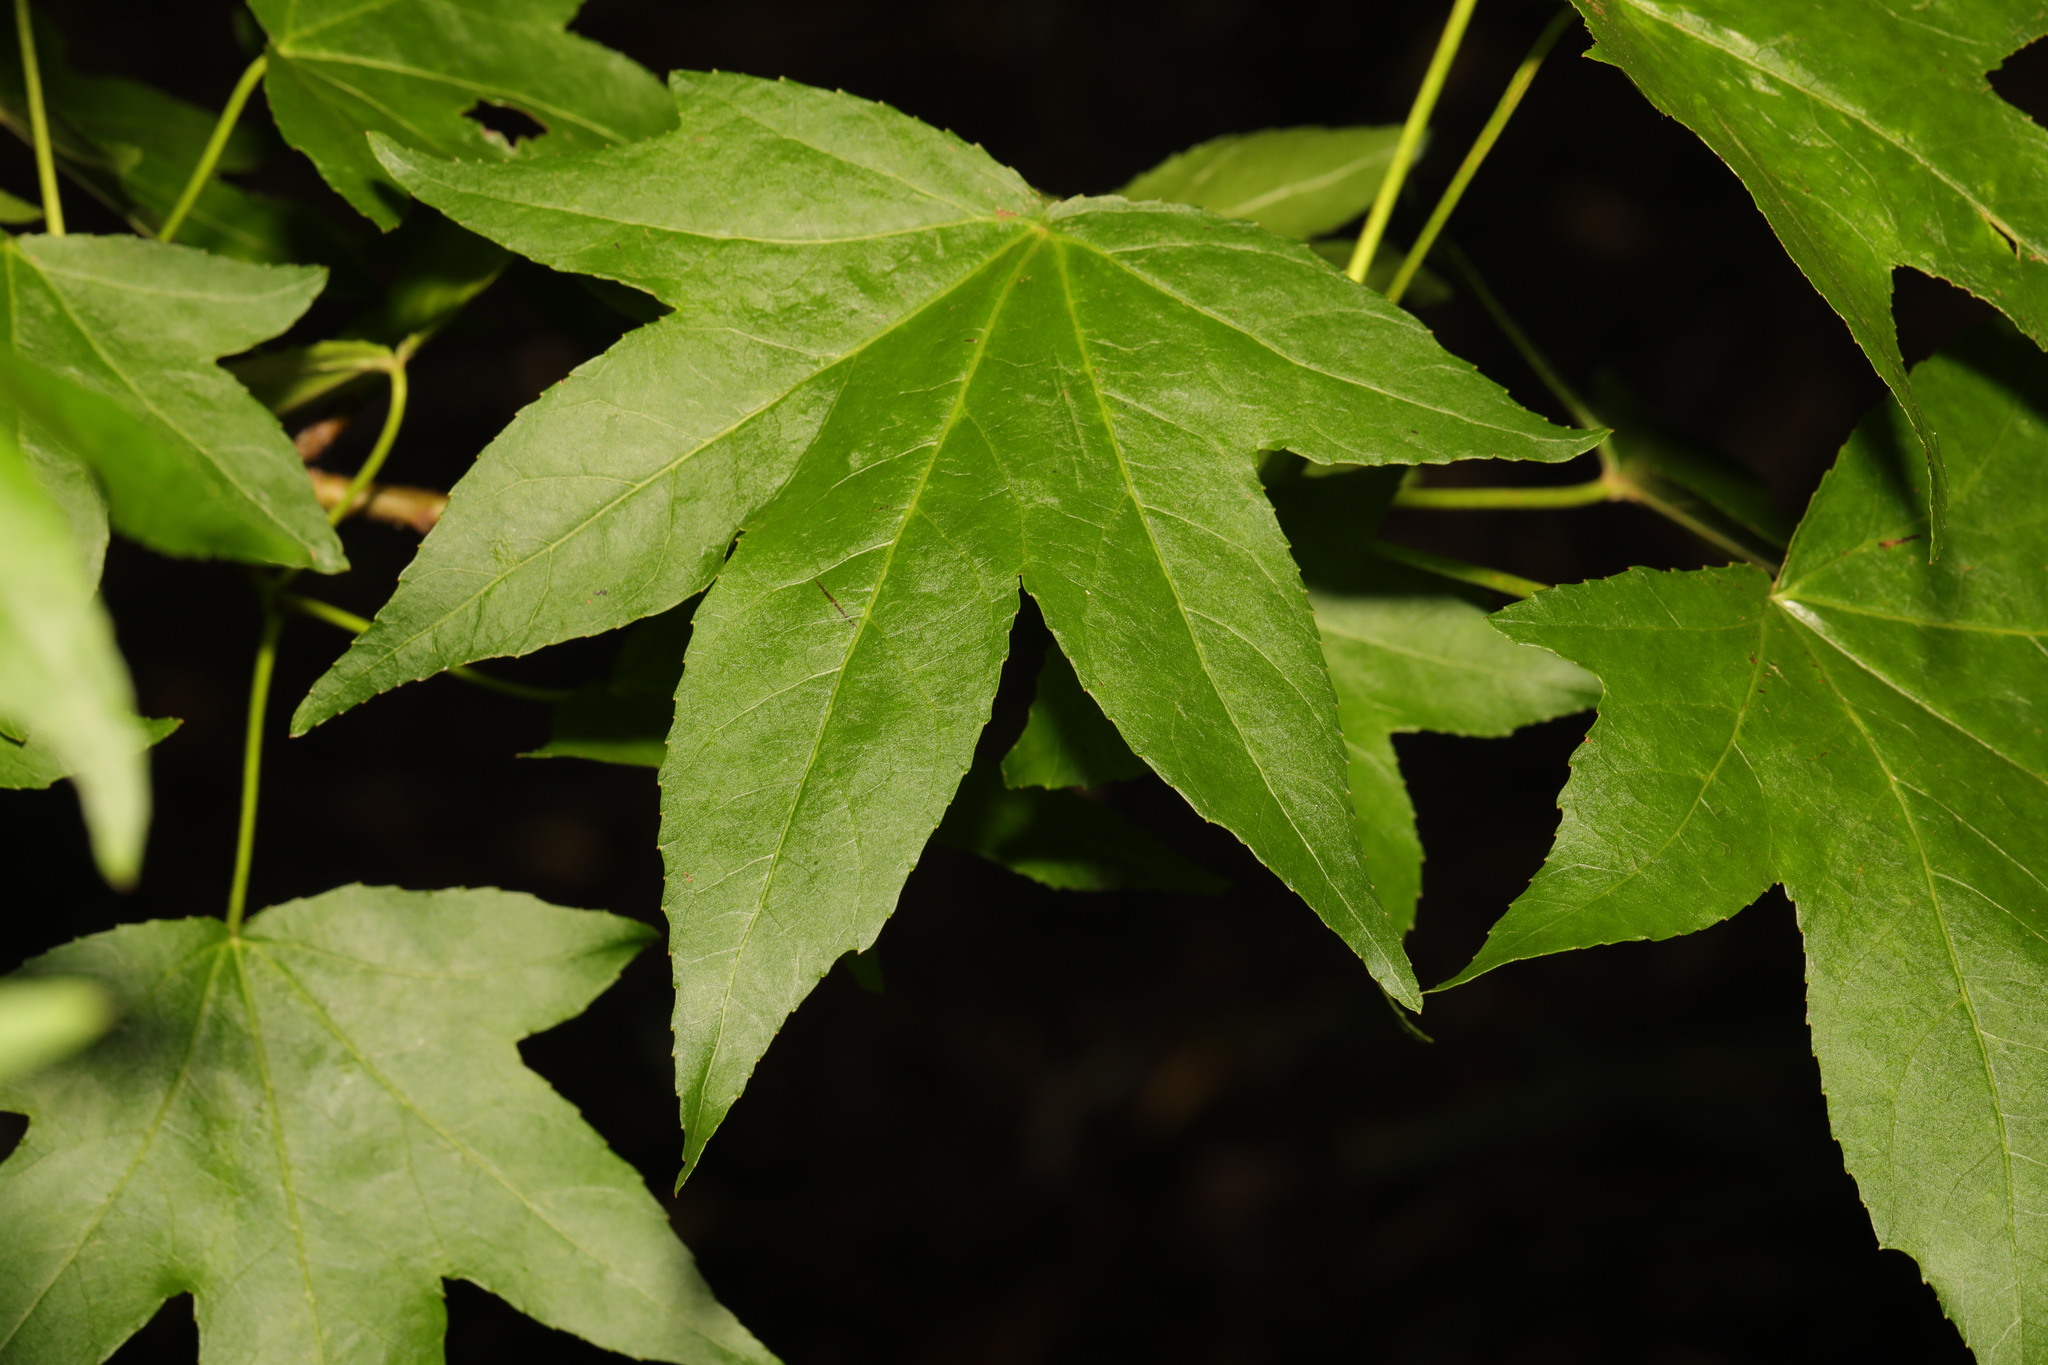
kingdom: Plantae
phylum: Tracheophyta
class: Magnoliopsida
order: Saxifragales
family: Altingiaceae
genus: Liquidambar
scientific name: Liquidambar styraciflua
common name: Sweet gum
